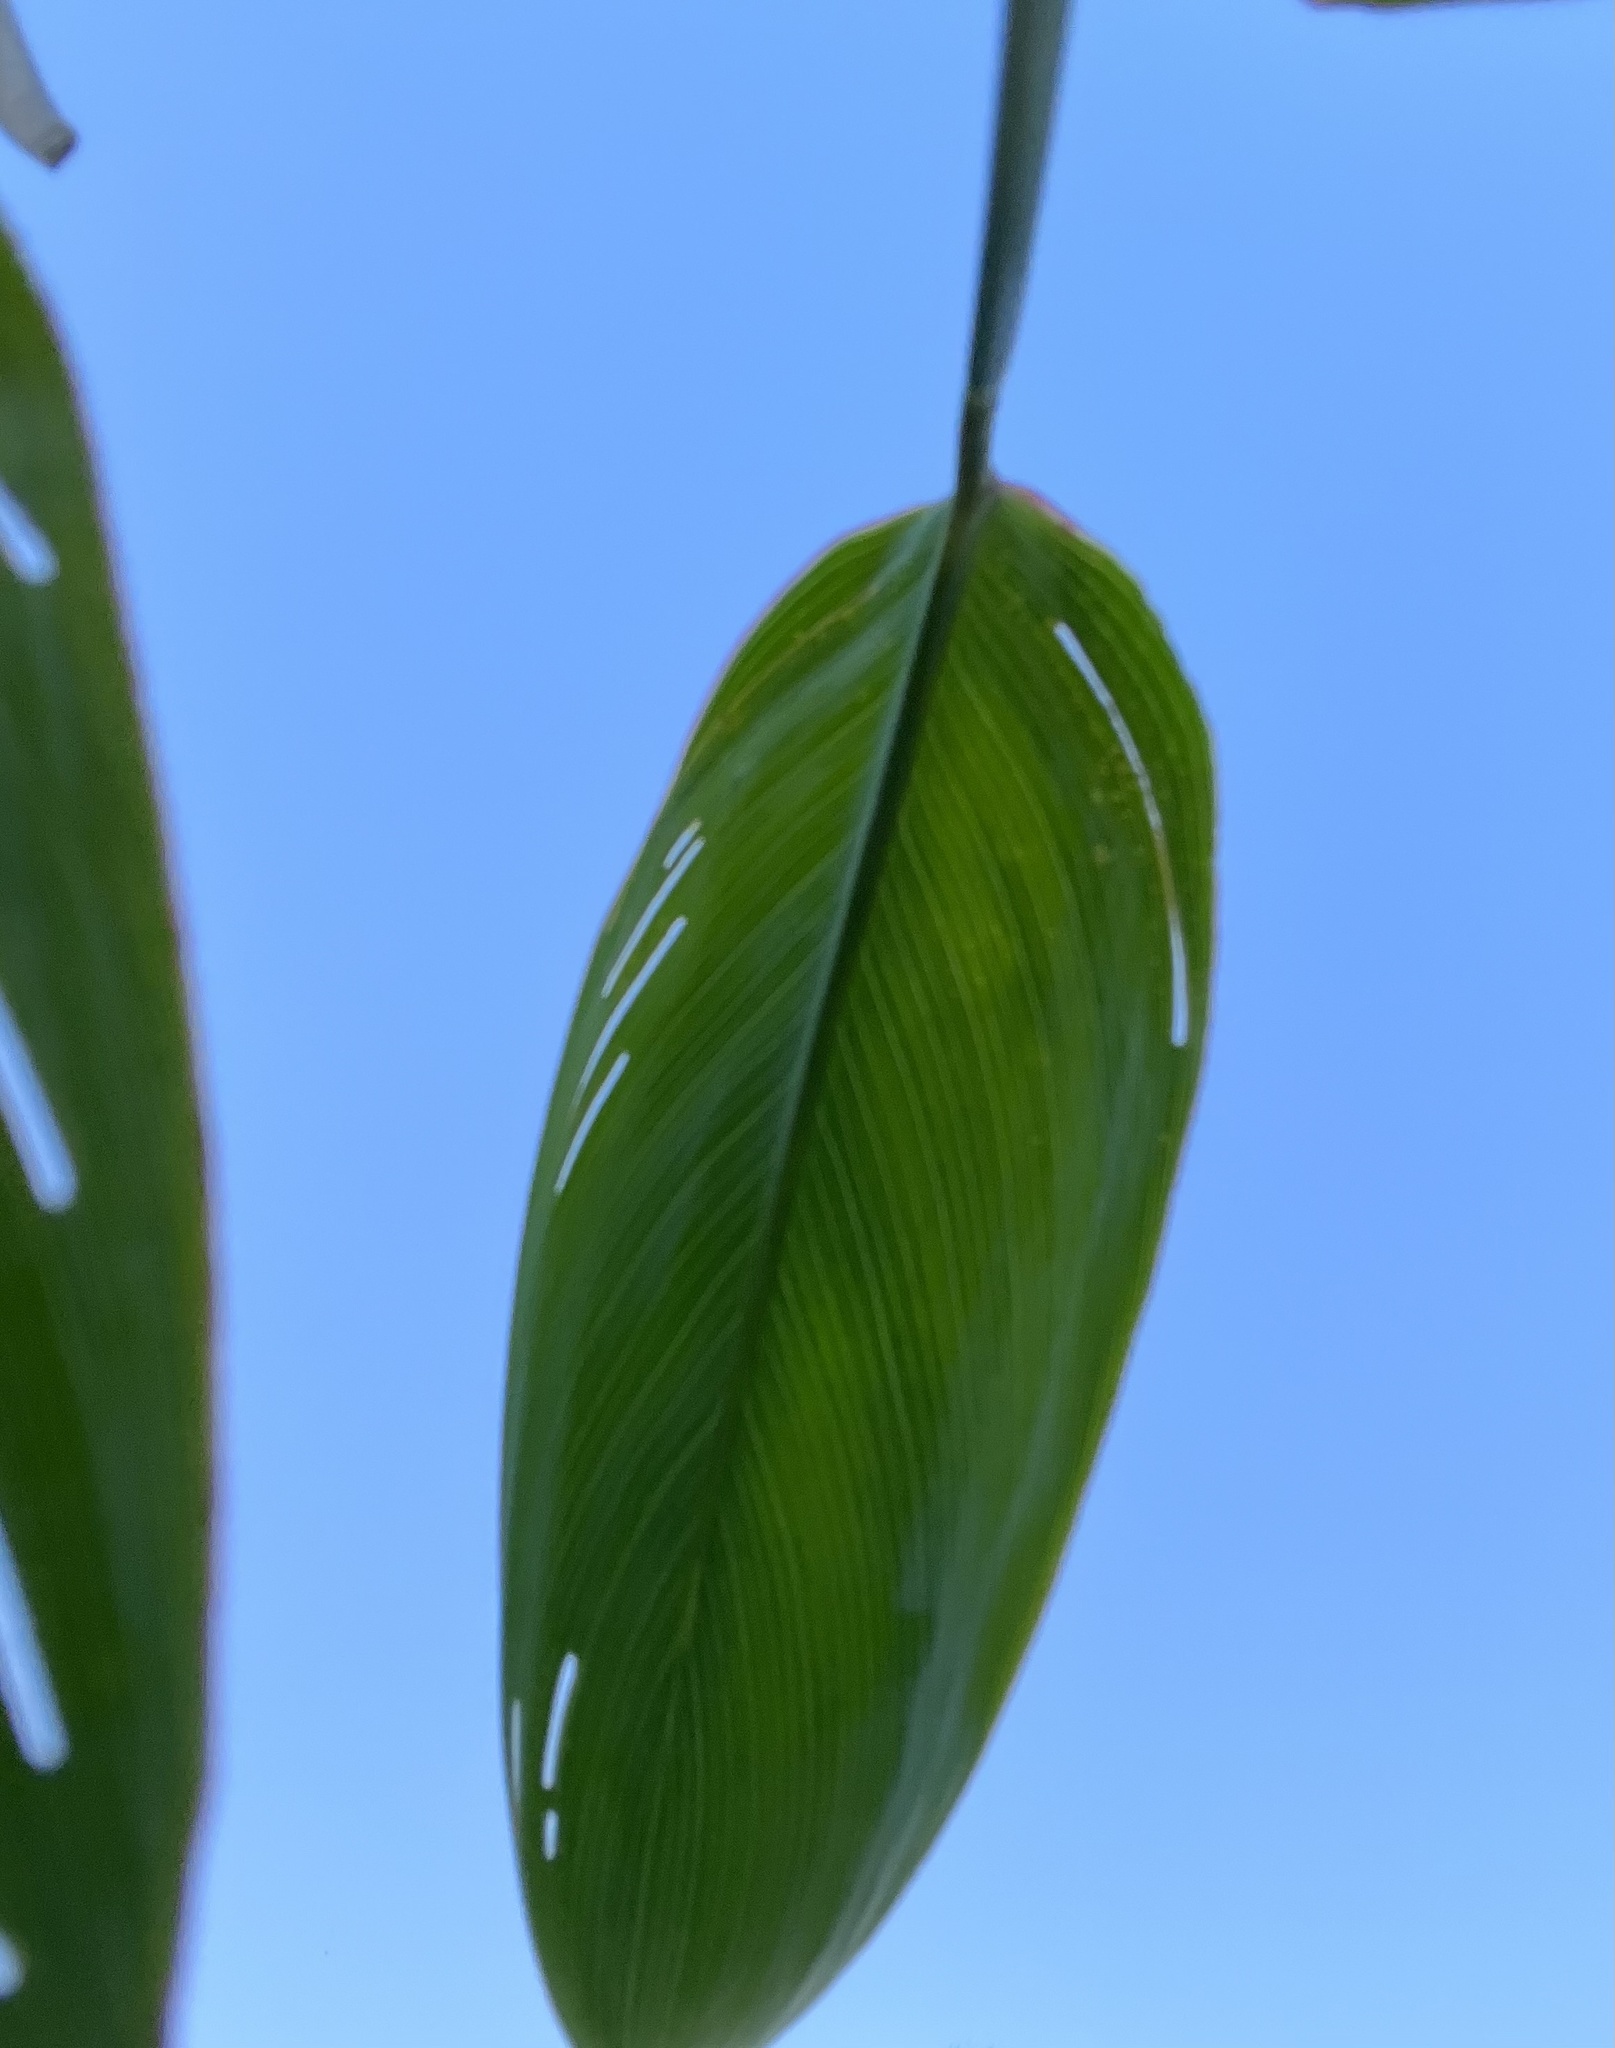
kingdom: Plantae
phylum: Tracheophyta
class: Liliopsida
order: Zingiberales
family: Marantaceae
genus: Thalia
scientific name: Thalia multiflora
